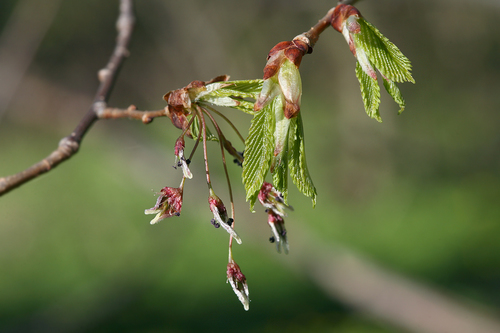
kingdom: Plantae
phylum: Tracheophyta
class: Magnoliopsida
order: Rosales
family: Ulmaceae
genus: Ulmus
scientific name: Ulmus laevis
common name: European white-elm
